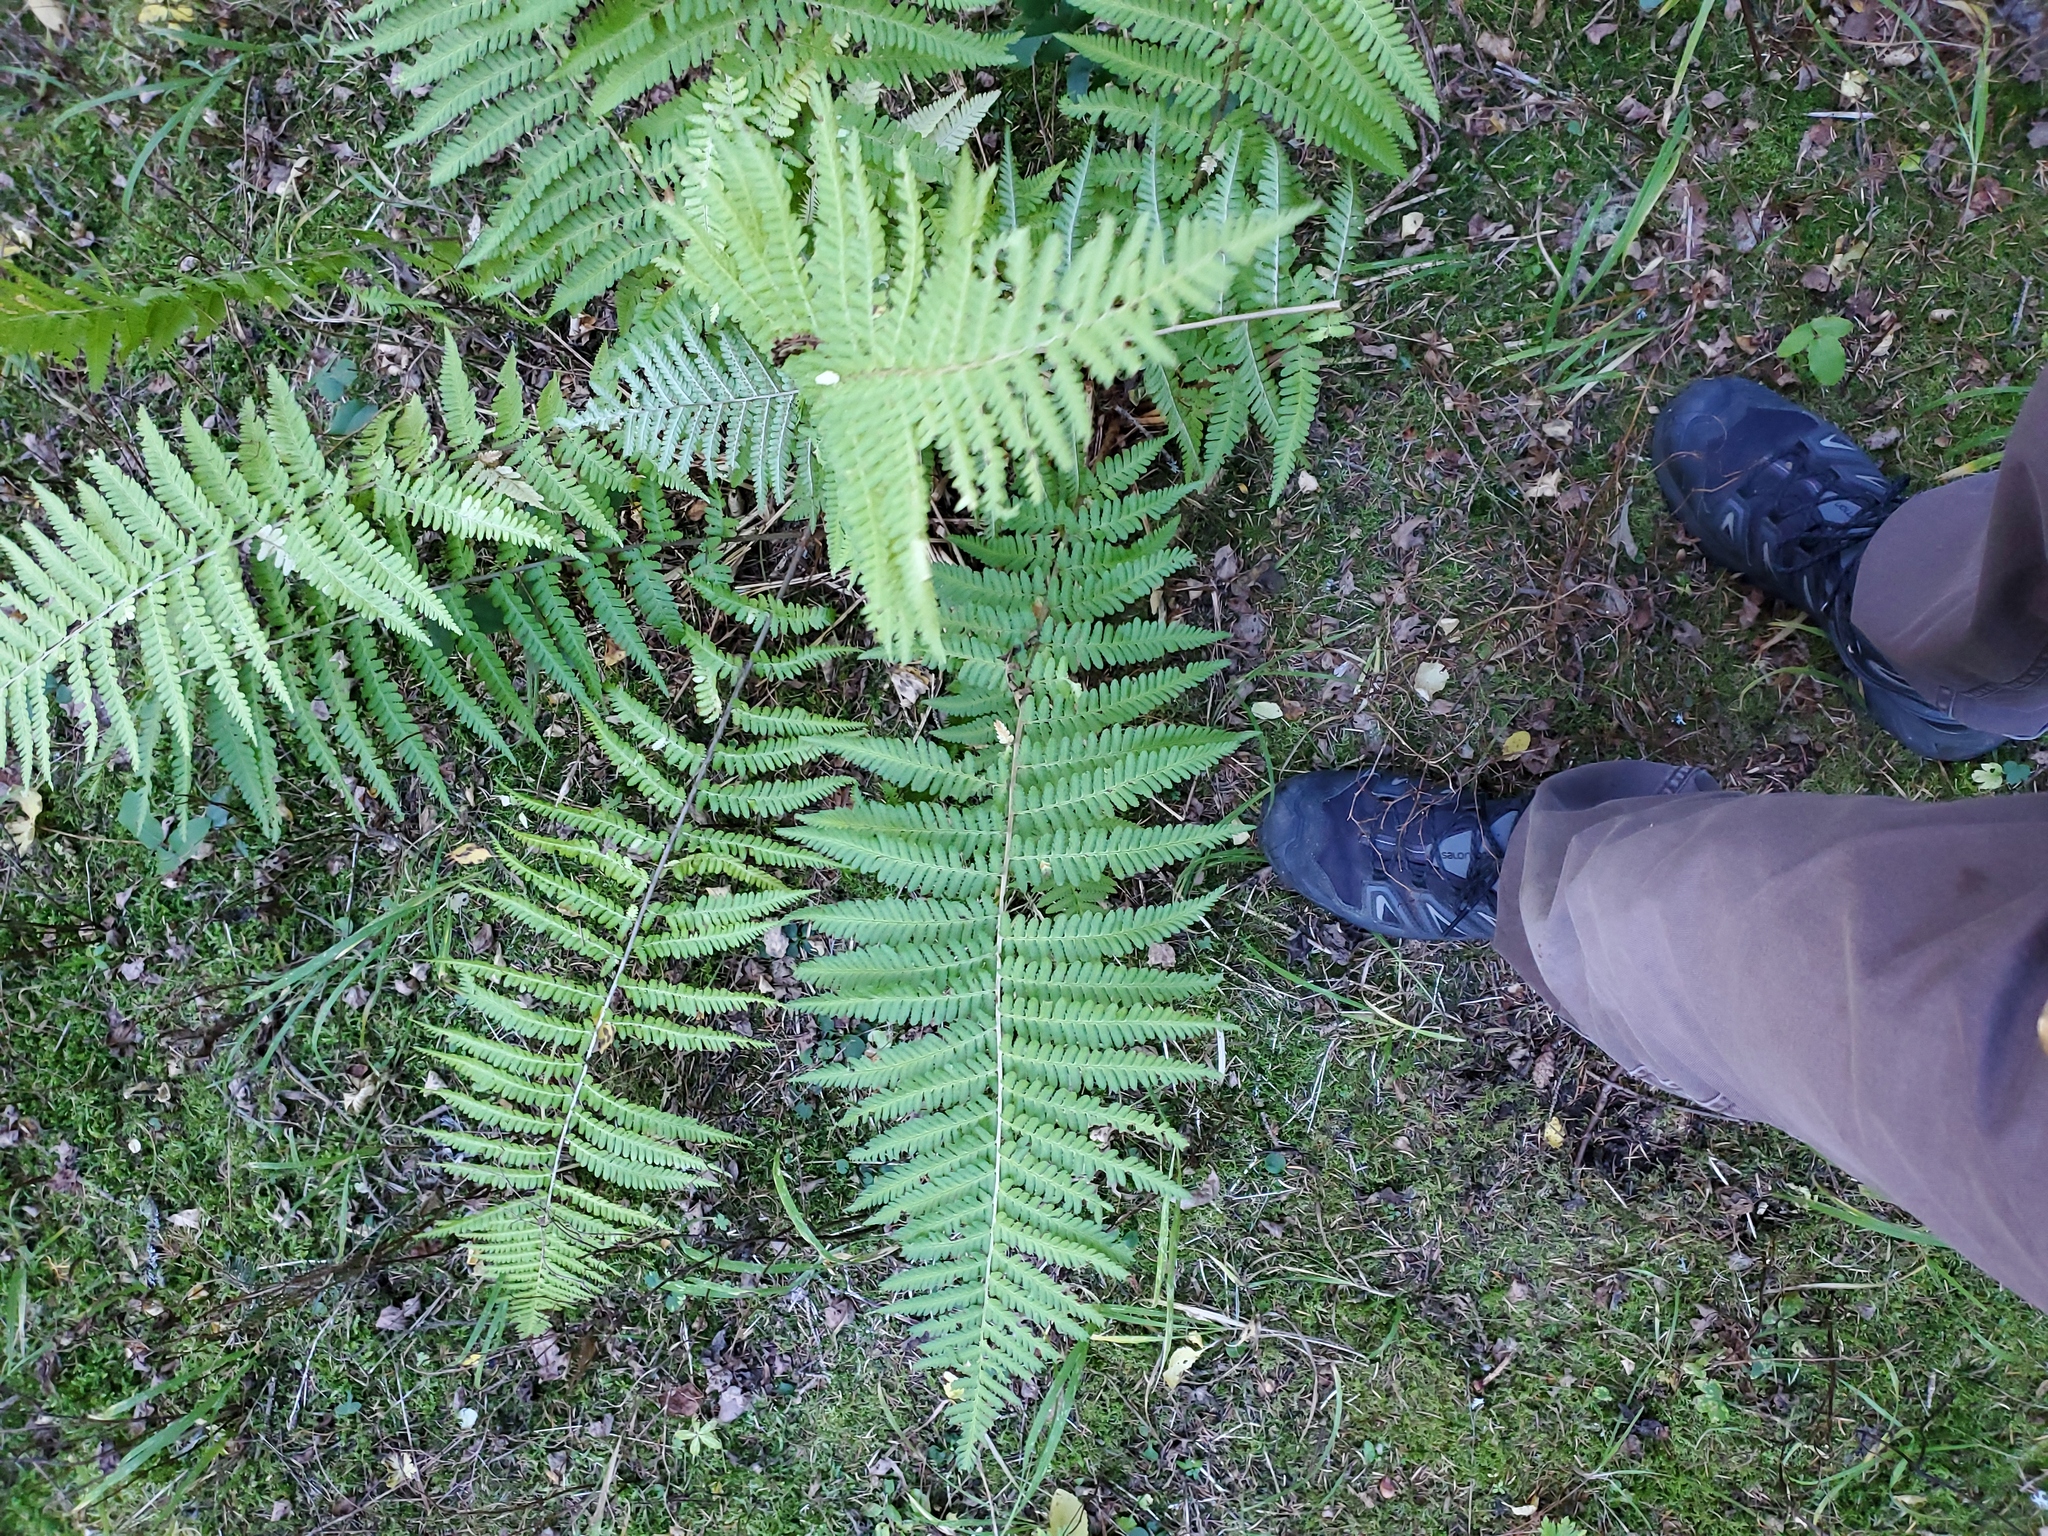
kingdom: Plantae
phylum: Tracheophyta
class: Polypodiopsida
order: Polypodiales
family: Dryopteridaceae
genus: Dryopteris
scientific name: Dryopteris filix-mas
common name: Male fern
